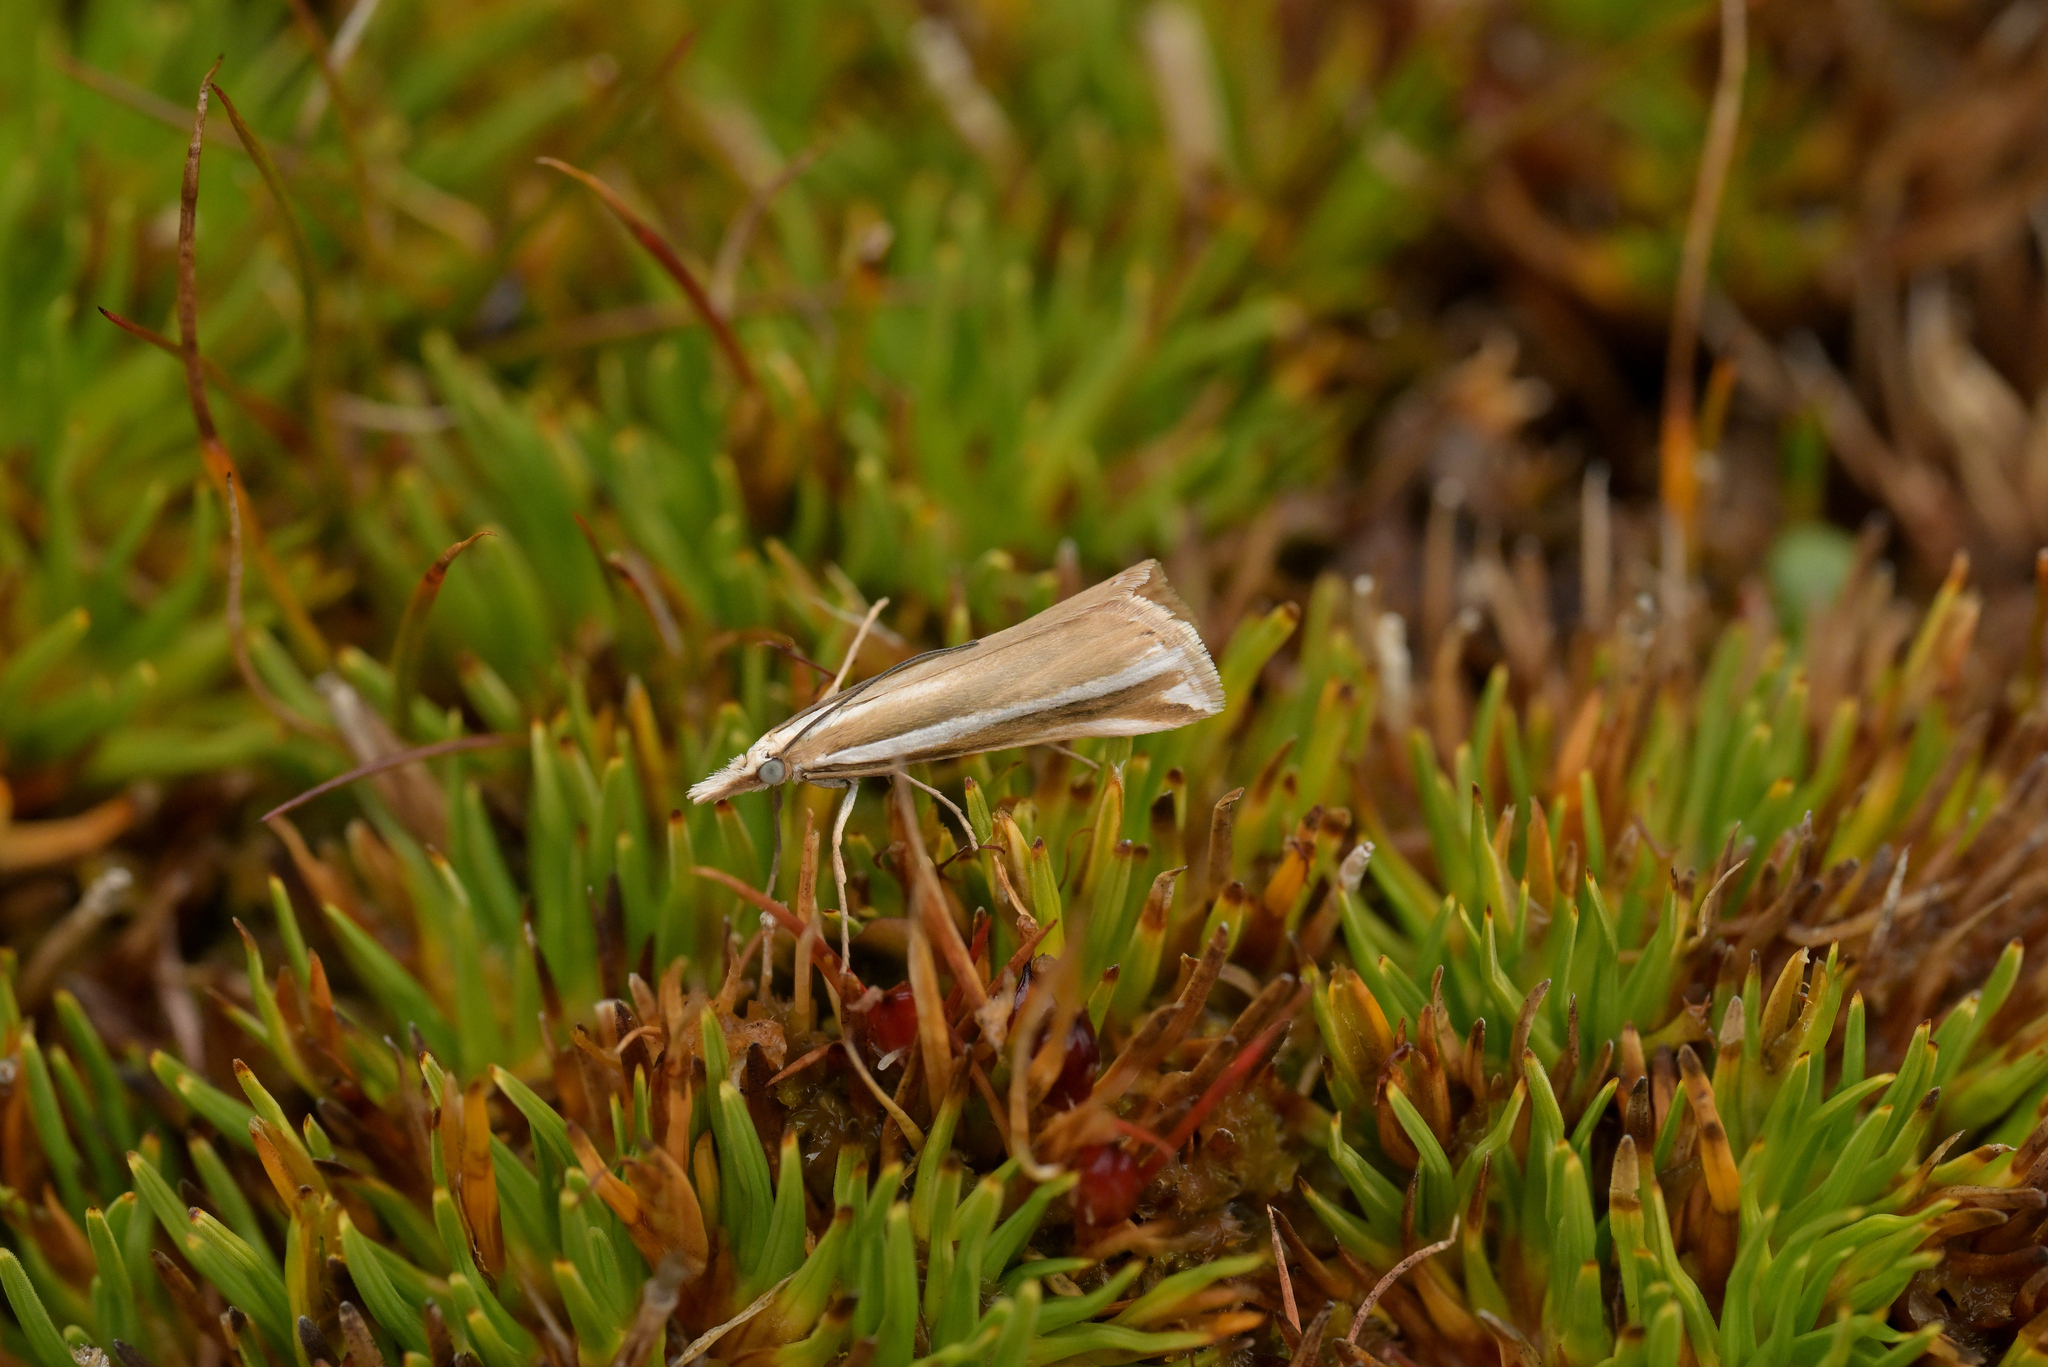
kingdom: Animalia
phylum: Arthropoda
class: Insecta
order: Lepidoptera
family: Crambidae
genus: Orocrambus
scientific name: Orocrambus apicellus
